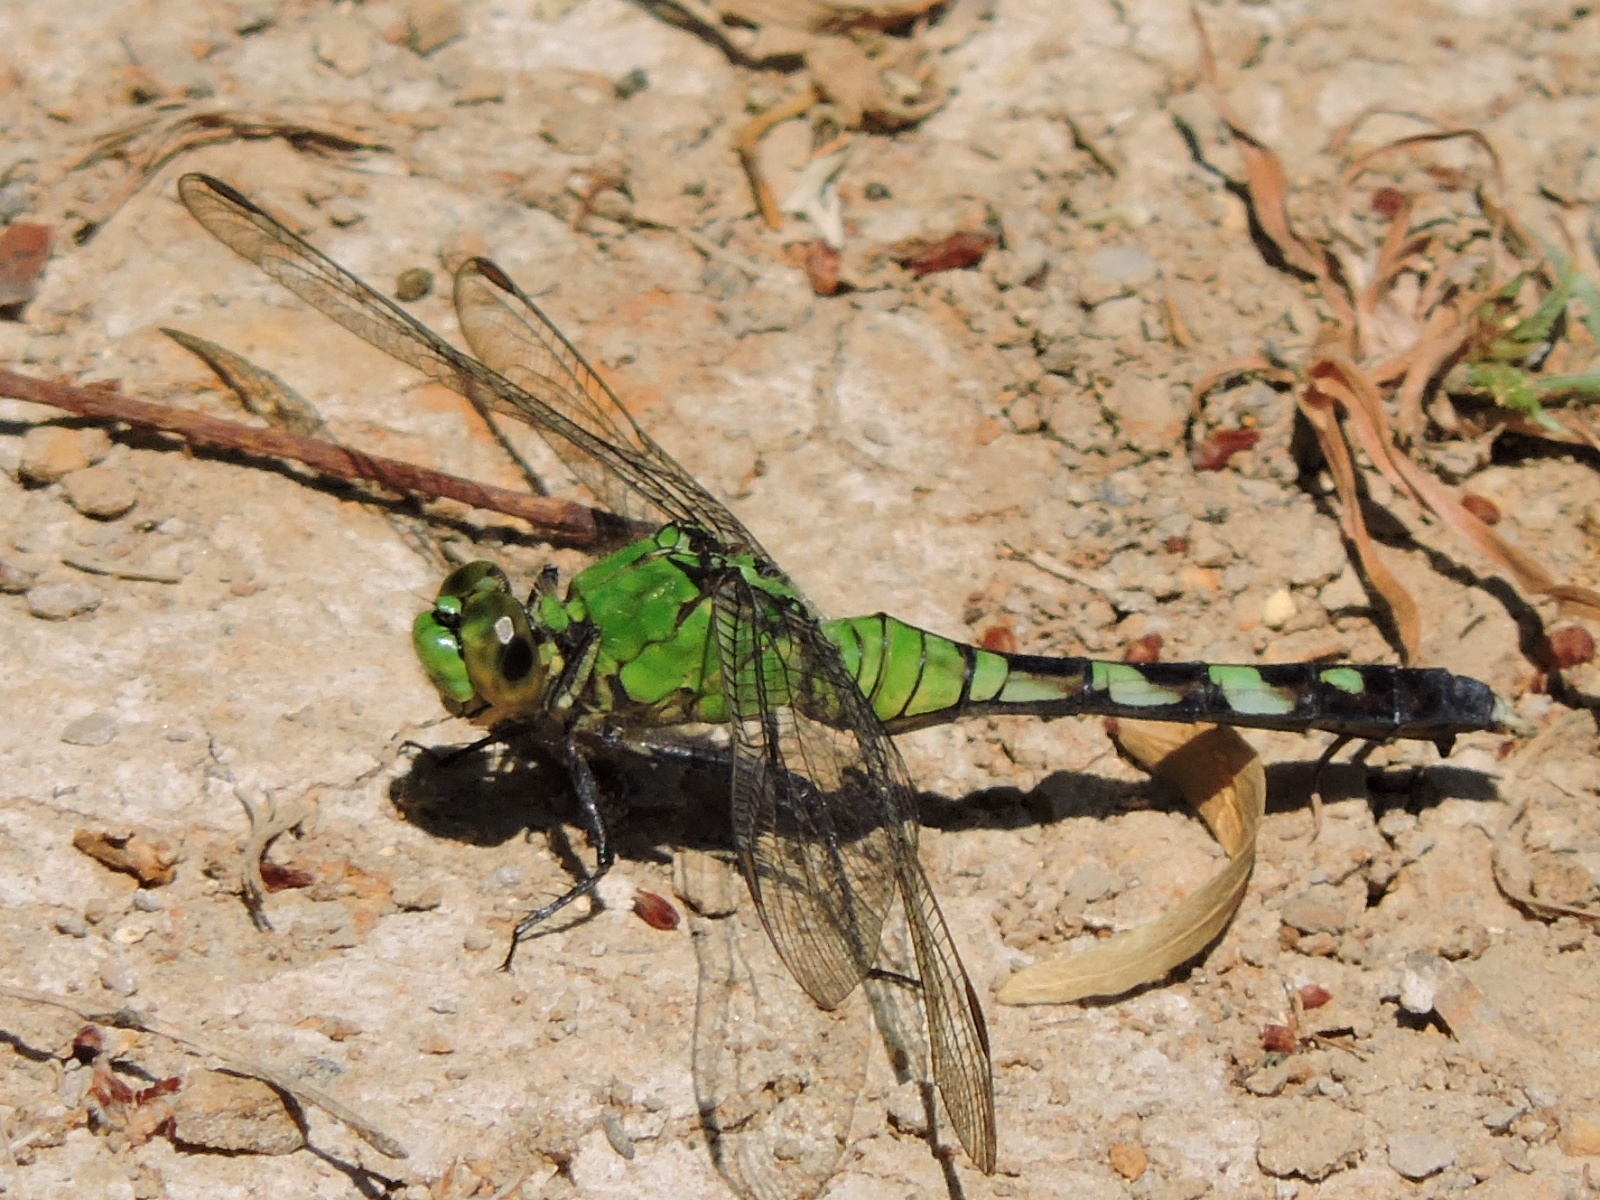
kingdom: Animalia
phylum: Arthropoda
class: Insecta
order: Odonata
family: Libellulidae
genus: Erythemis
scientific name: Erythemis simplicicollis
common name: Eastern pondhawk
